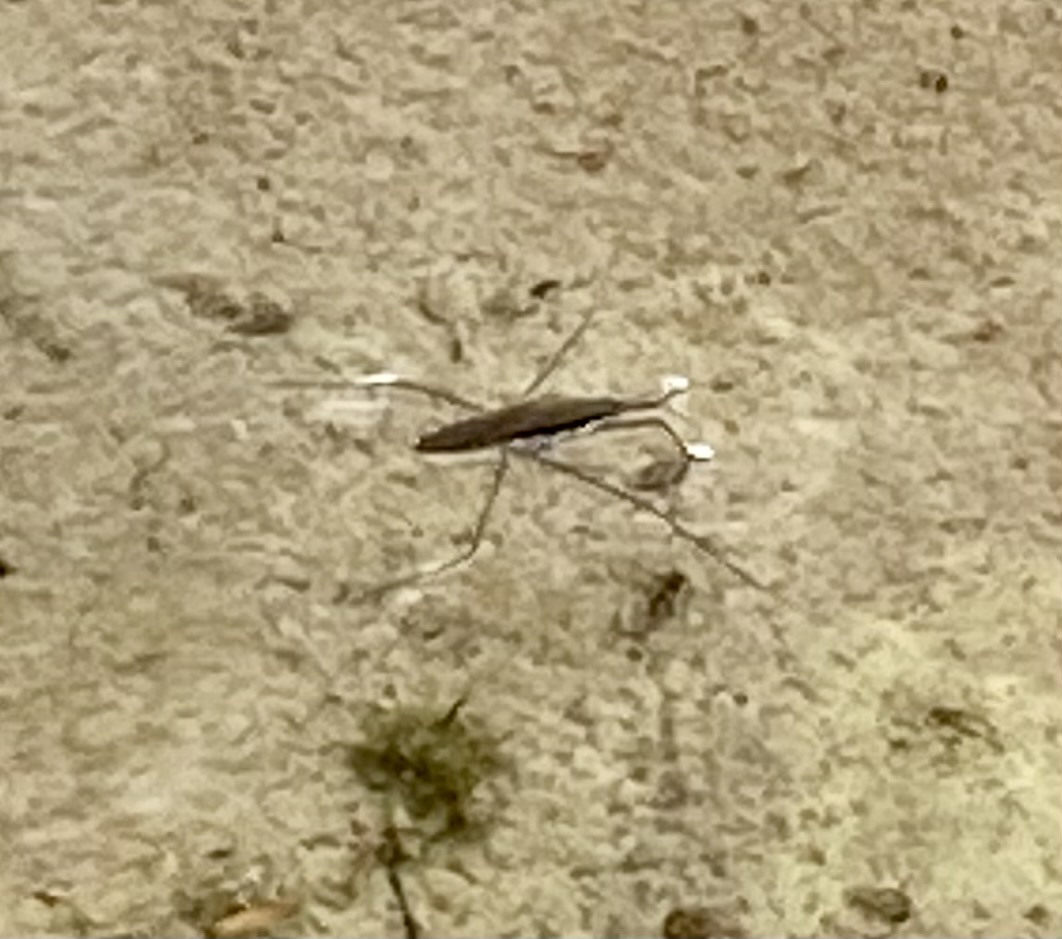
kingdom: Animalia
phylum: Arthropoda
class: Insecta
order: Hemiptera
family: Gerridae
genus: Aquarius
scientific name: Aquarius remigis
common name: Common water strider
